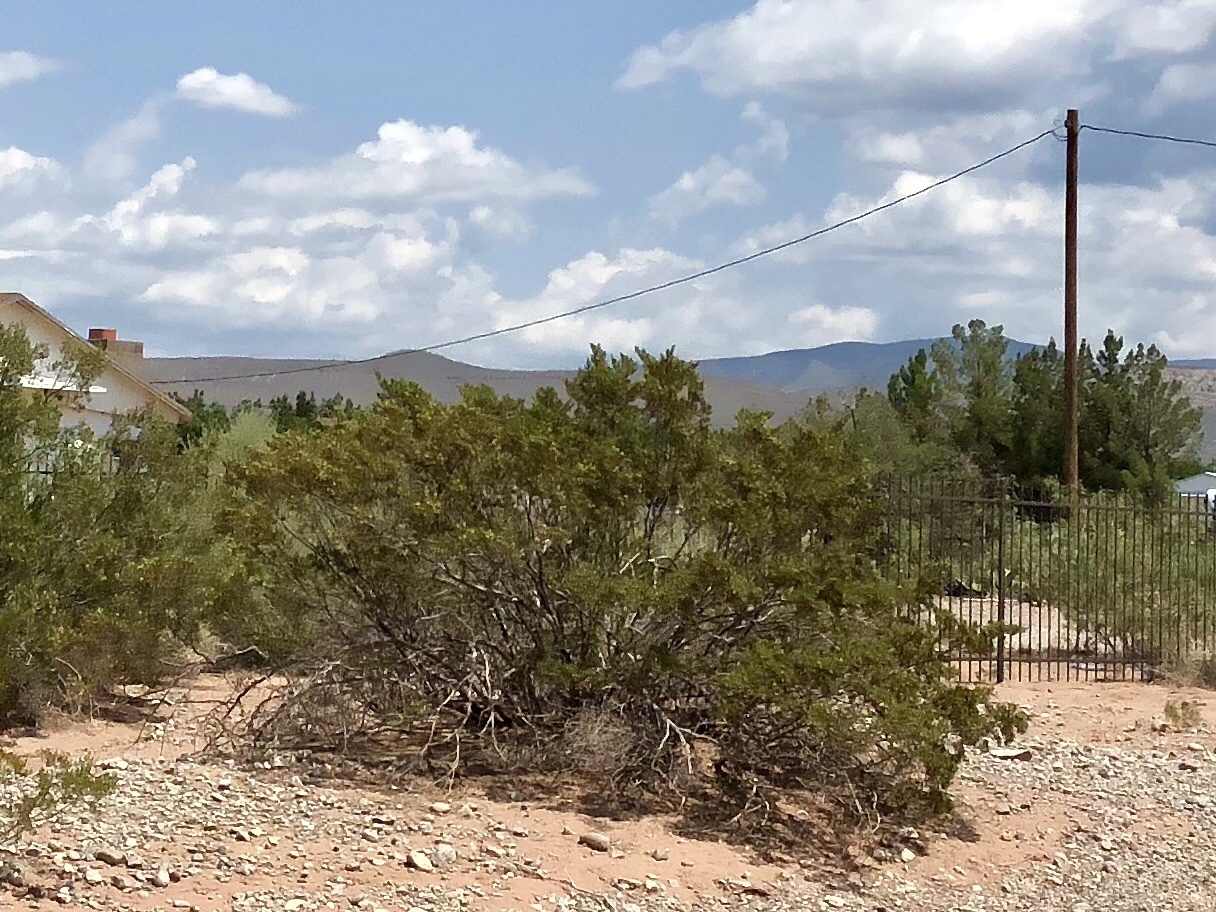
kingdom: Plantae
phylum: Tracheophyta
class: Magnoliopsida
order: Zygophyllales
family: Zygophyllaceae
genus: Larrea
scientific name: Larrea tridentata
